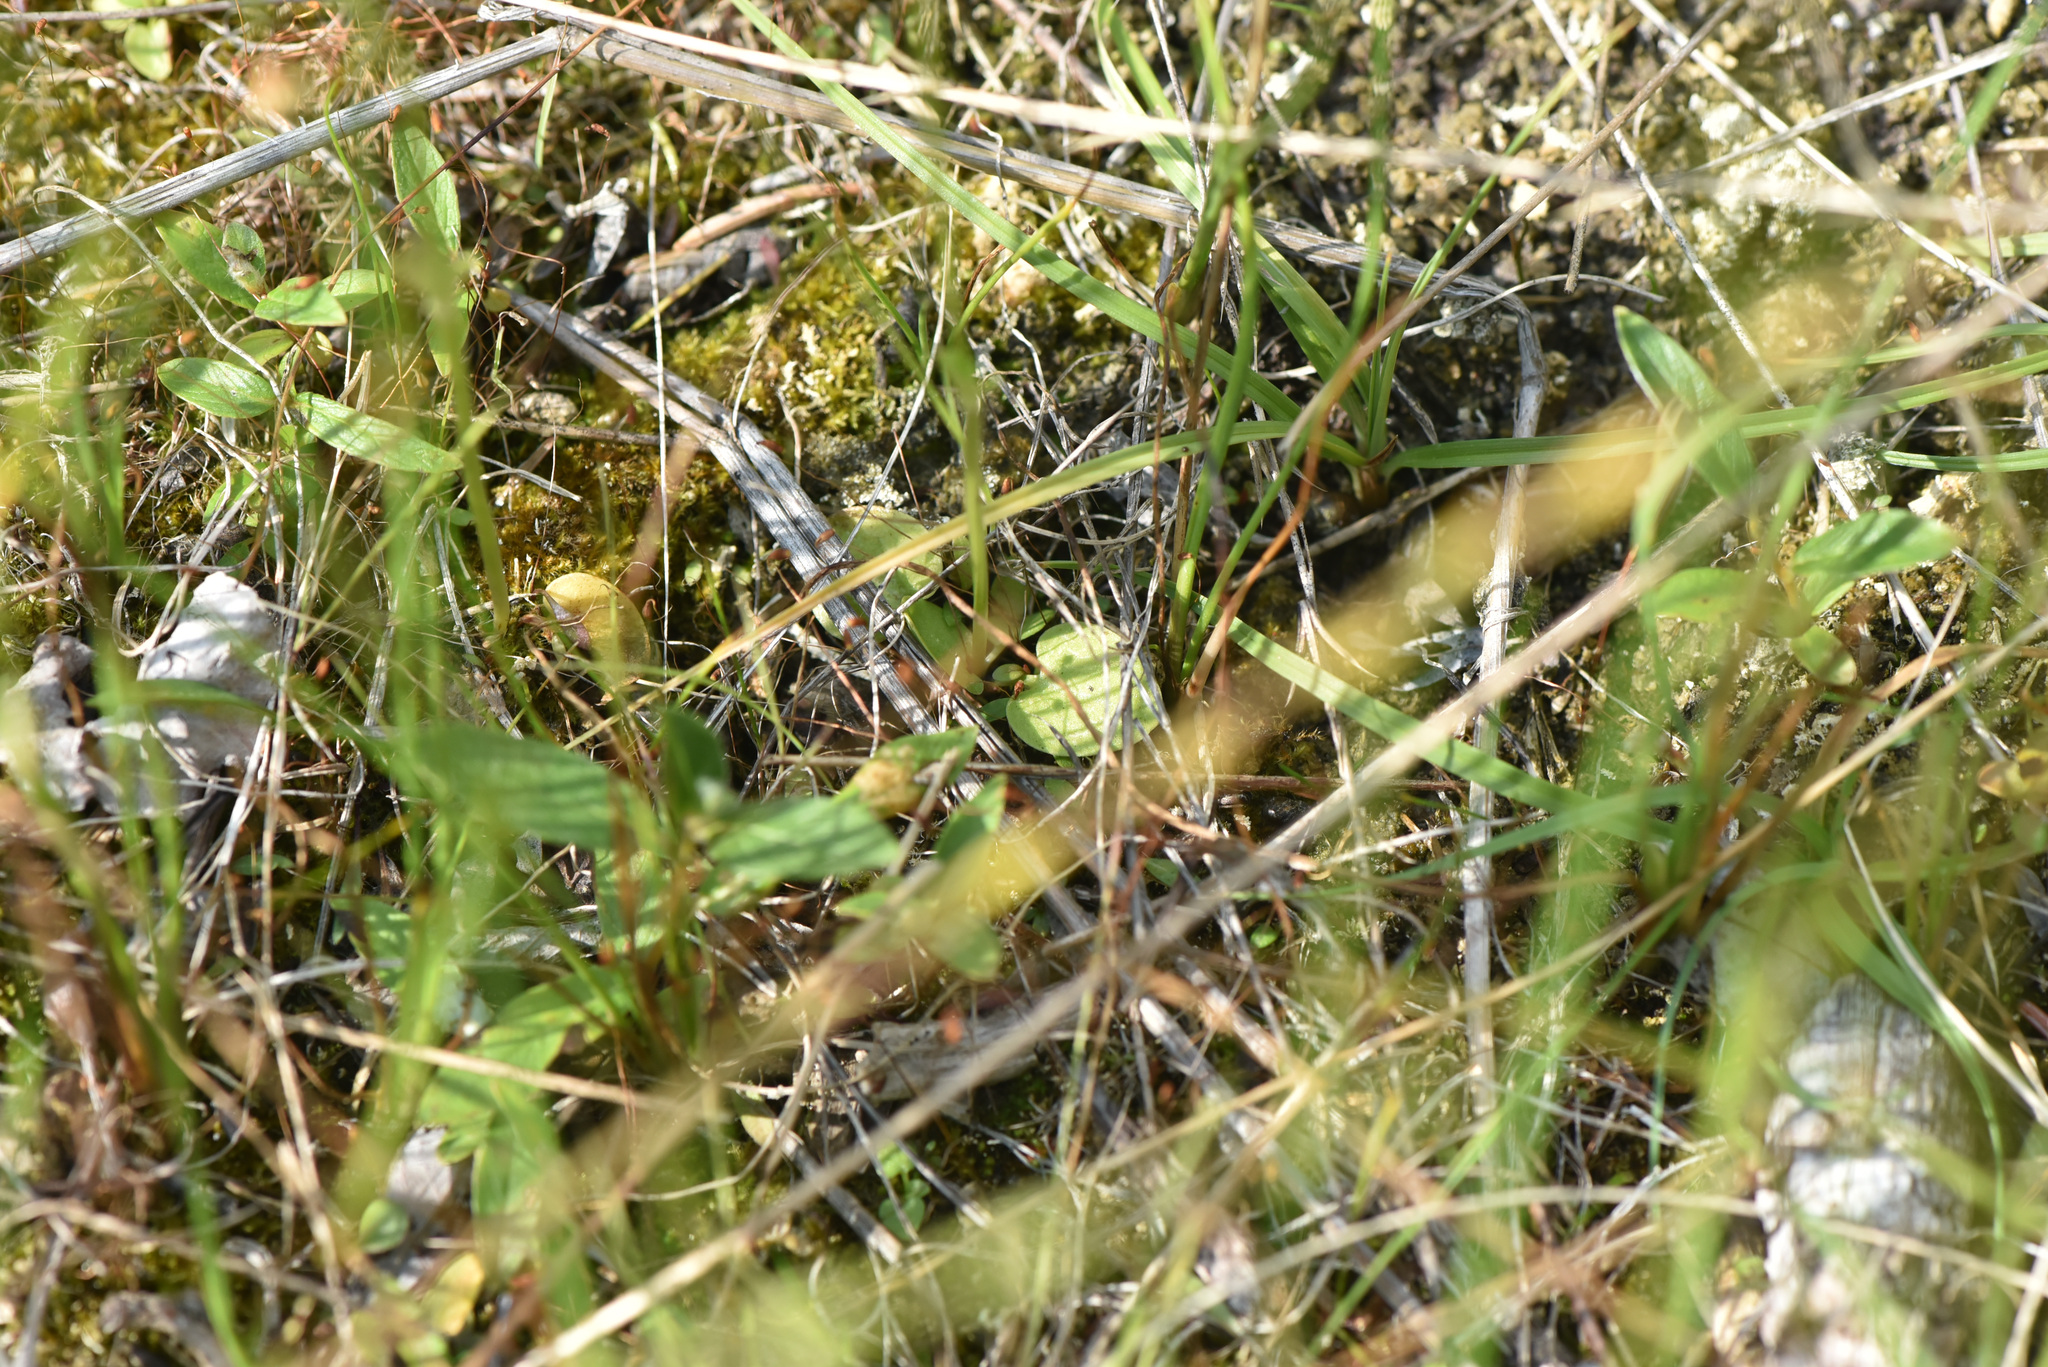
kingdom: Plantae
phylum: Tracheophyta
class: Magnoliopsida
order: Celastrales
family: Parnassiaceae
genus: Parnassia
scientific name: Parnassia palustris
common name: Grass-of-parnassus
